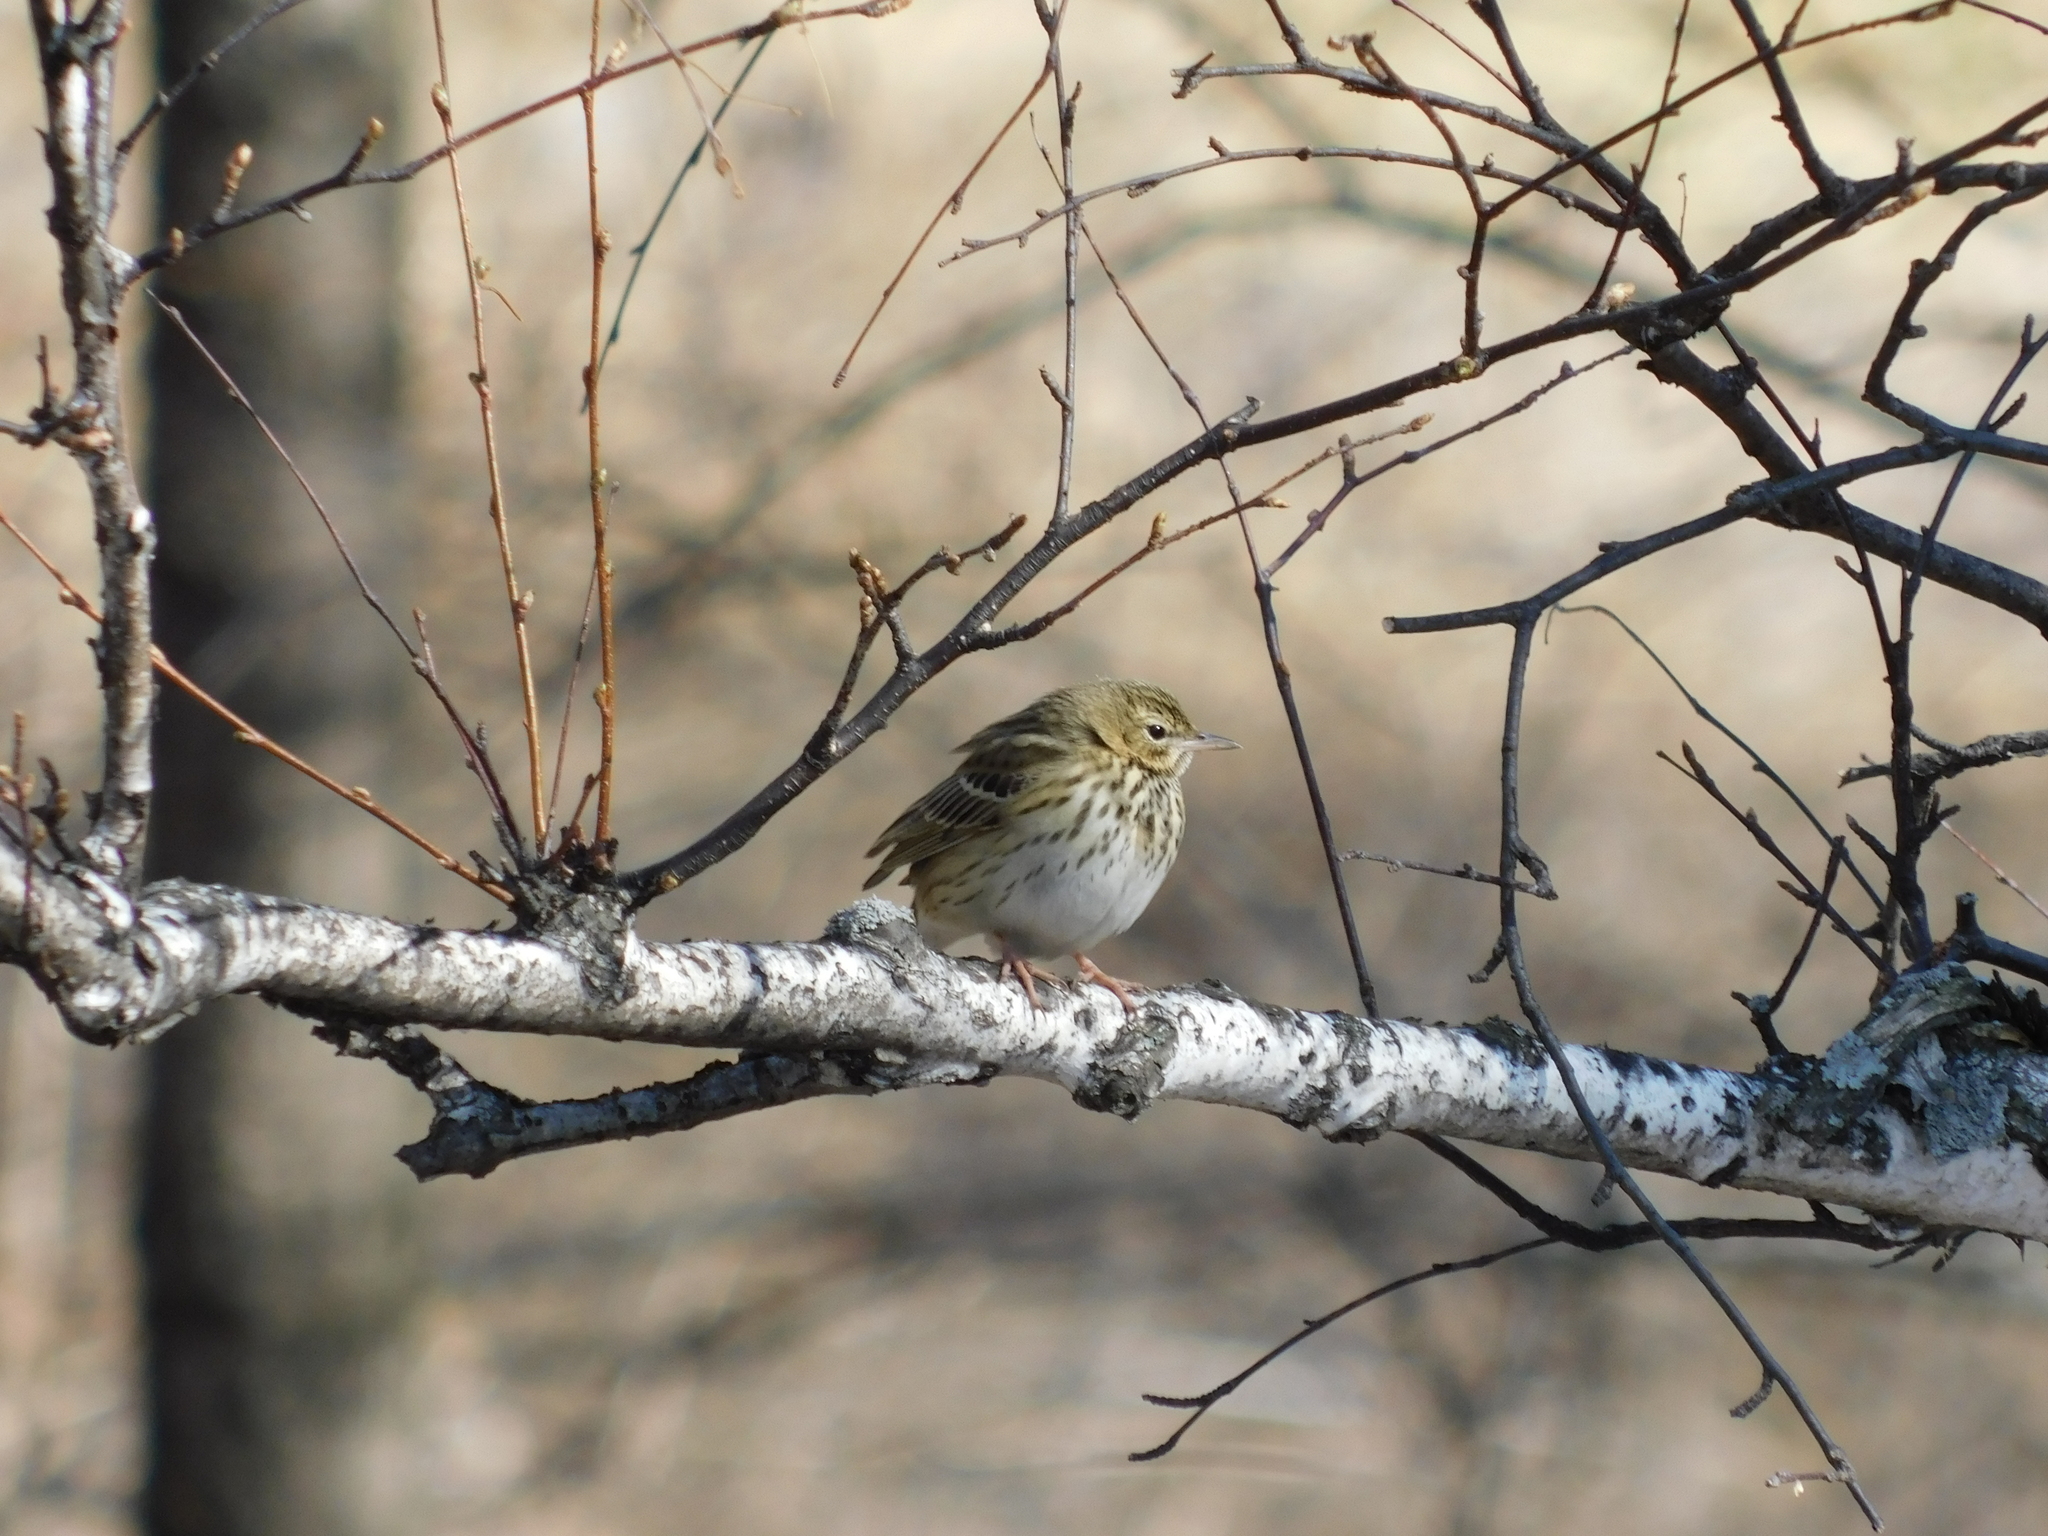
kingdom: Animalia
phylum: Chordata
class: Aves
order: Passeriformes
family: Motacillidae
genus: Anthus
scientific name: Anthus trivialis
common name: Tree pipit
